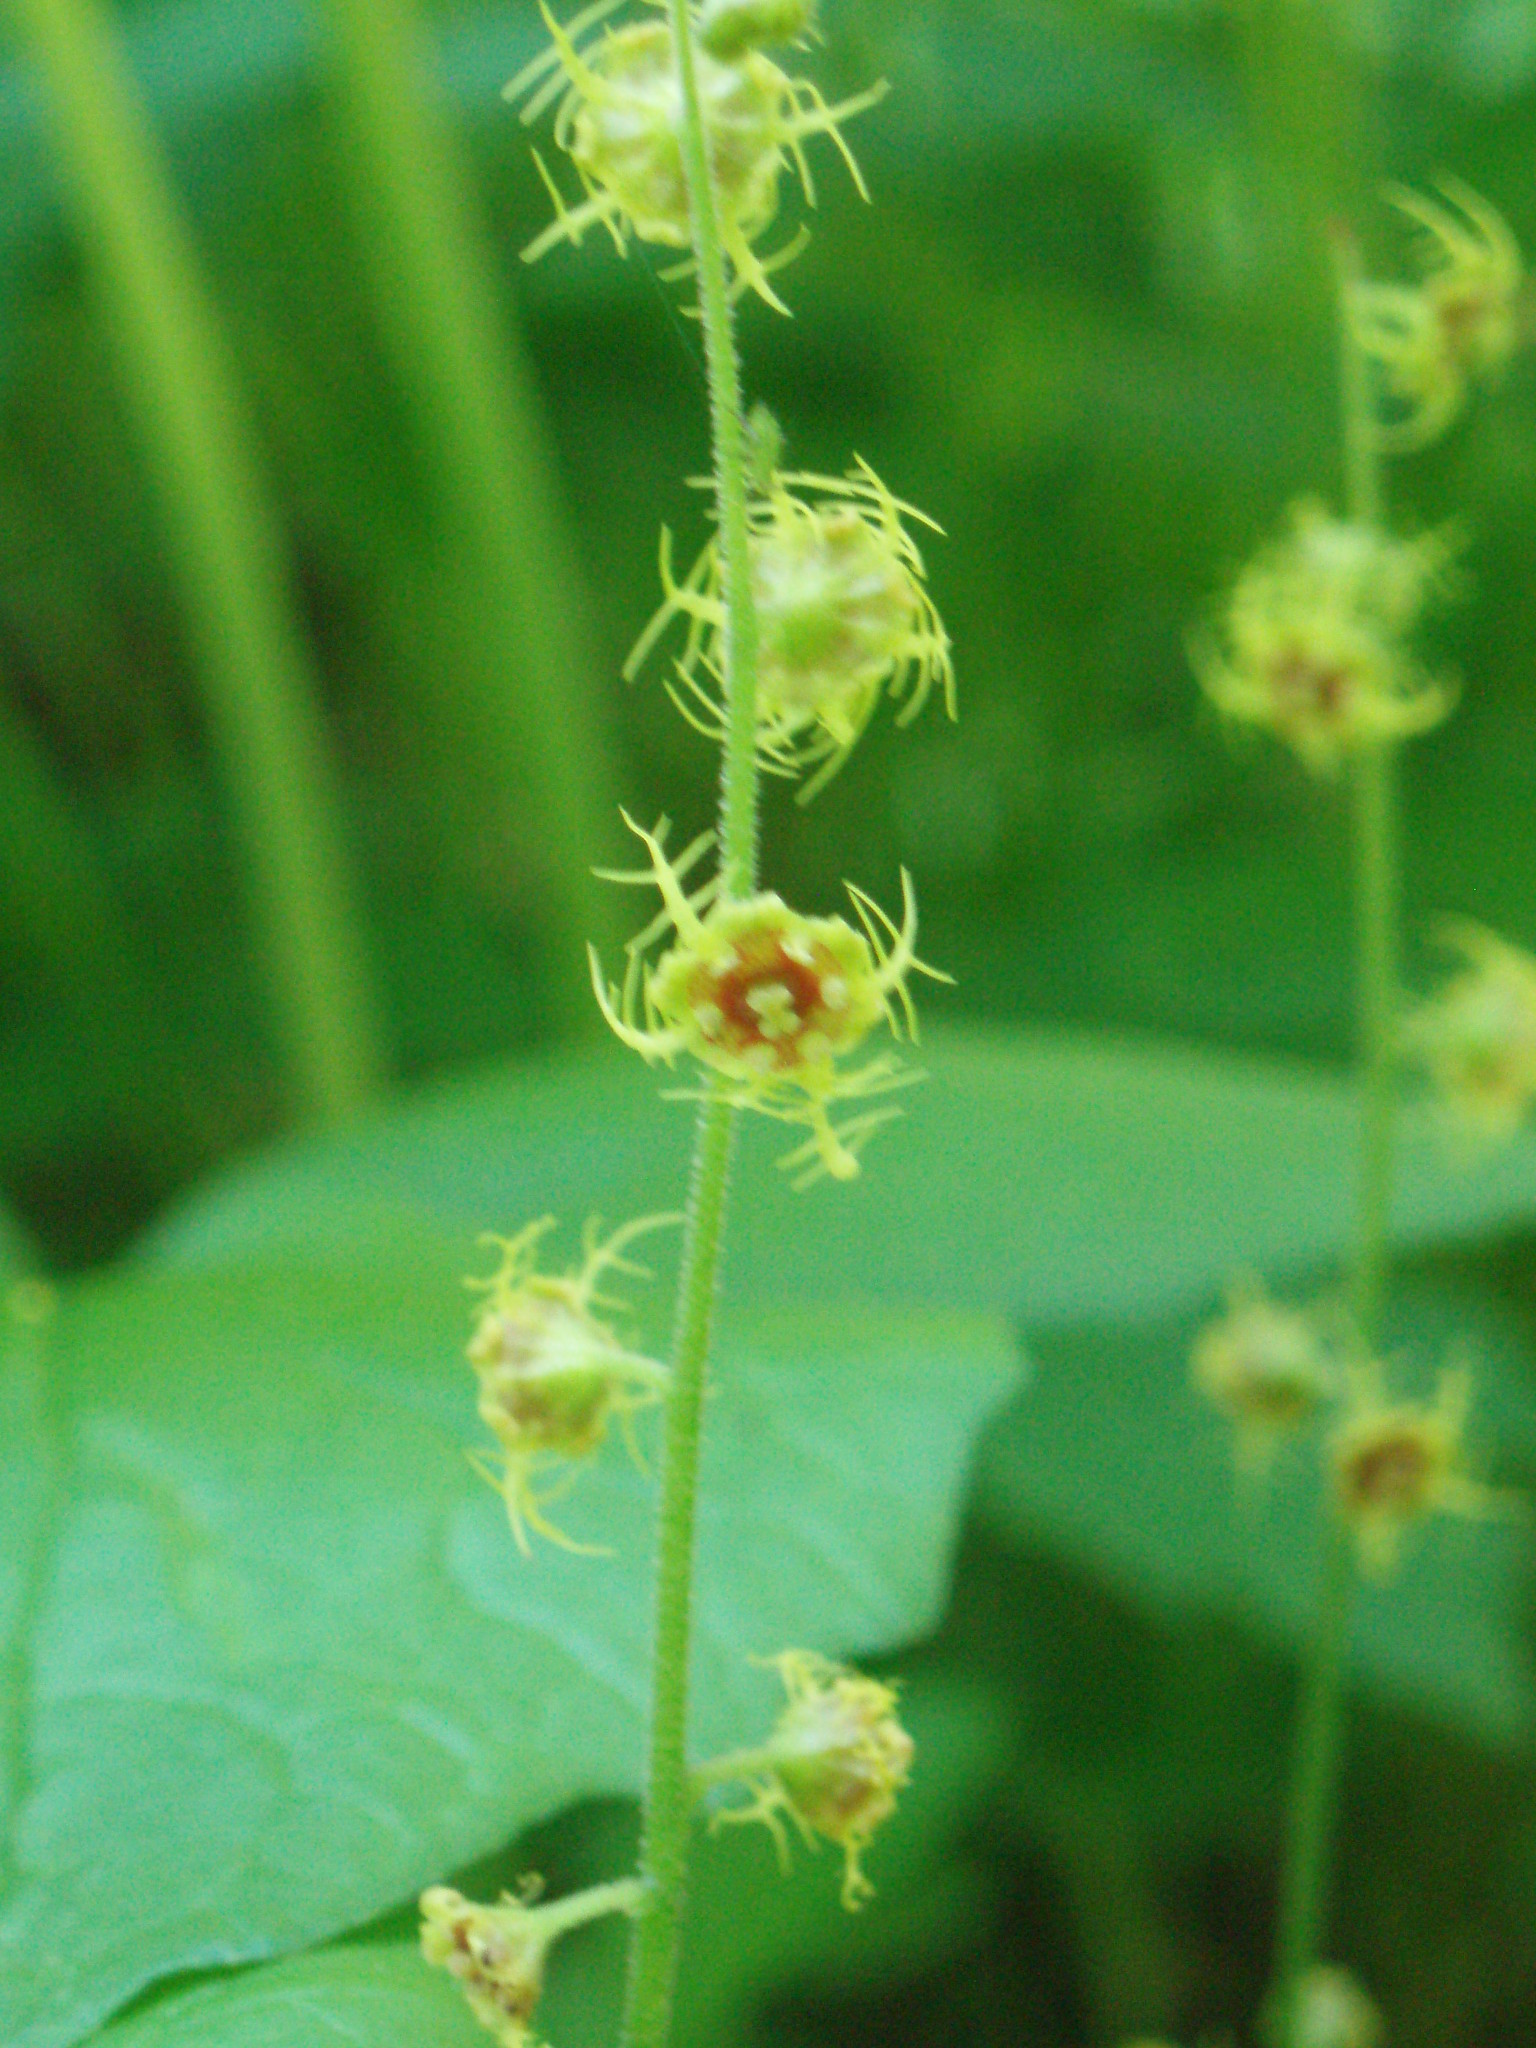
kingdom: Plantae
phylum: Tracheophyta
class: Magnoliopsida
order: Saxifragales
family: Saxifragaceae
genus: Pectiantia
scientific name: Pectiantia pentandra
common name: Alpine bishop's-cap
